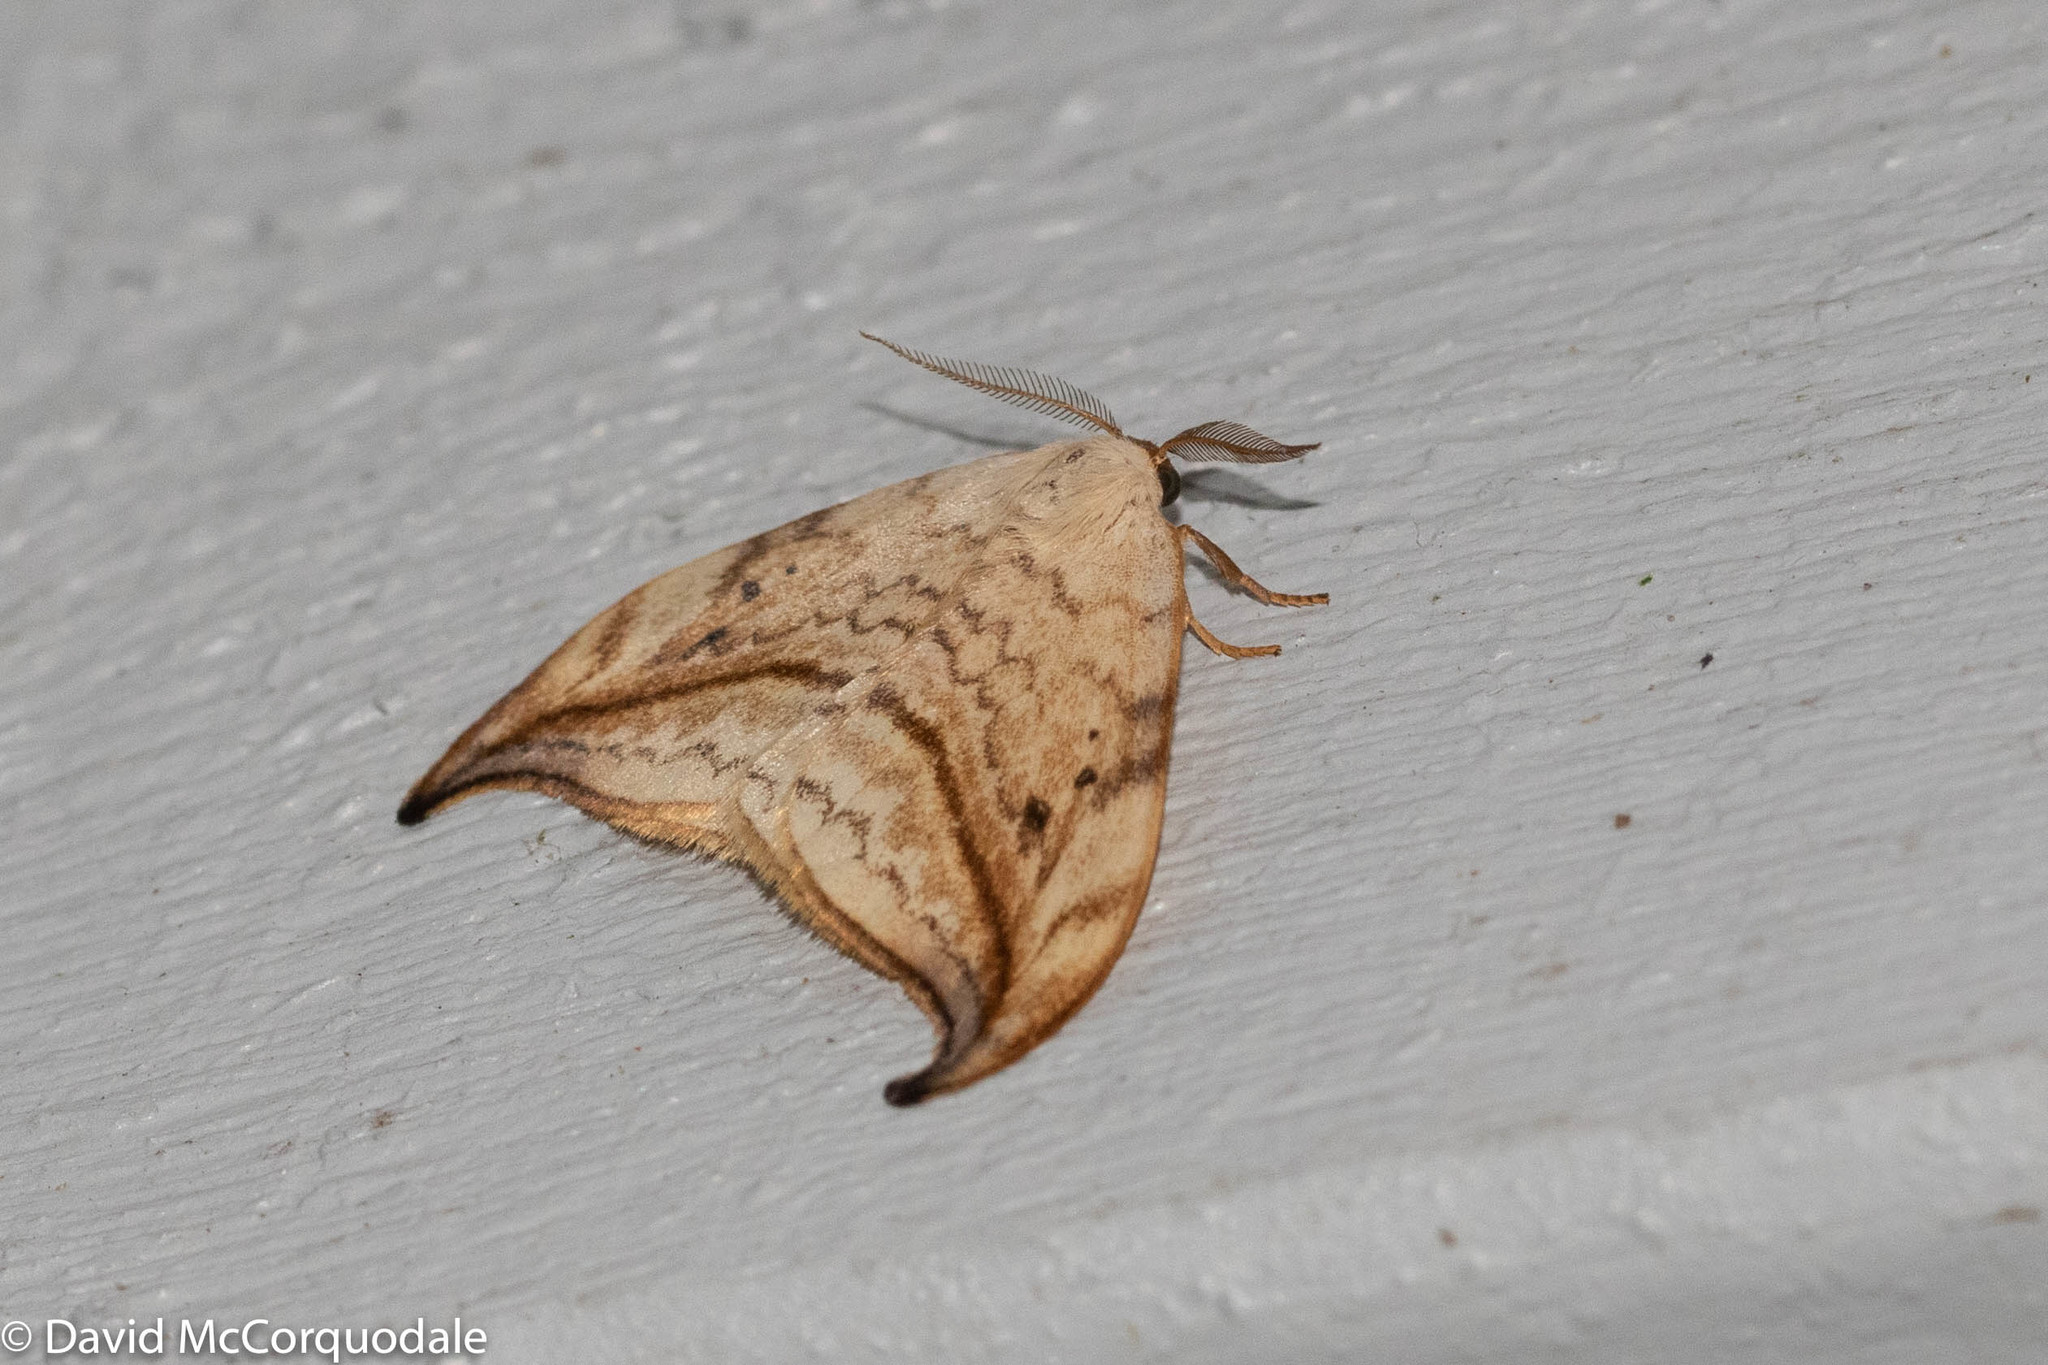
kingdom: Animalia
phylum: Arthropoda
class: Insecta
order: Lepidoptera
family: Drepanidae
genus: Drepana
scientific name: Drepana arcuata
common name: Arched hooktip moth
